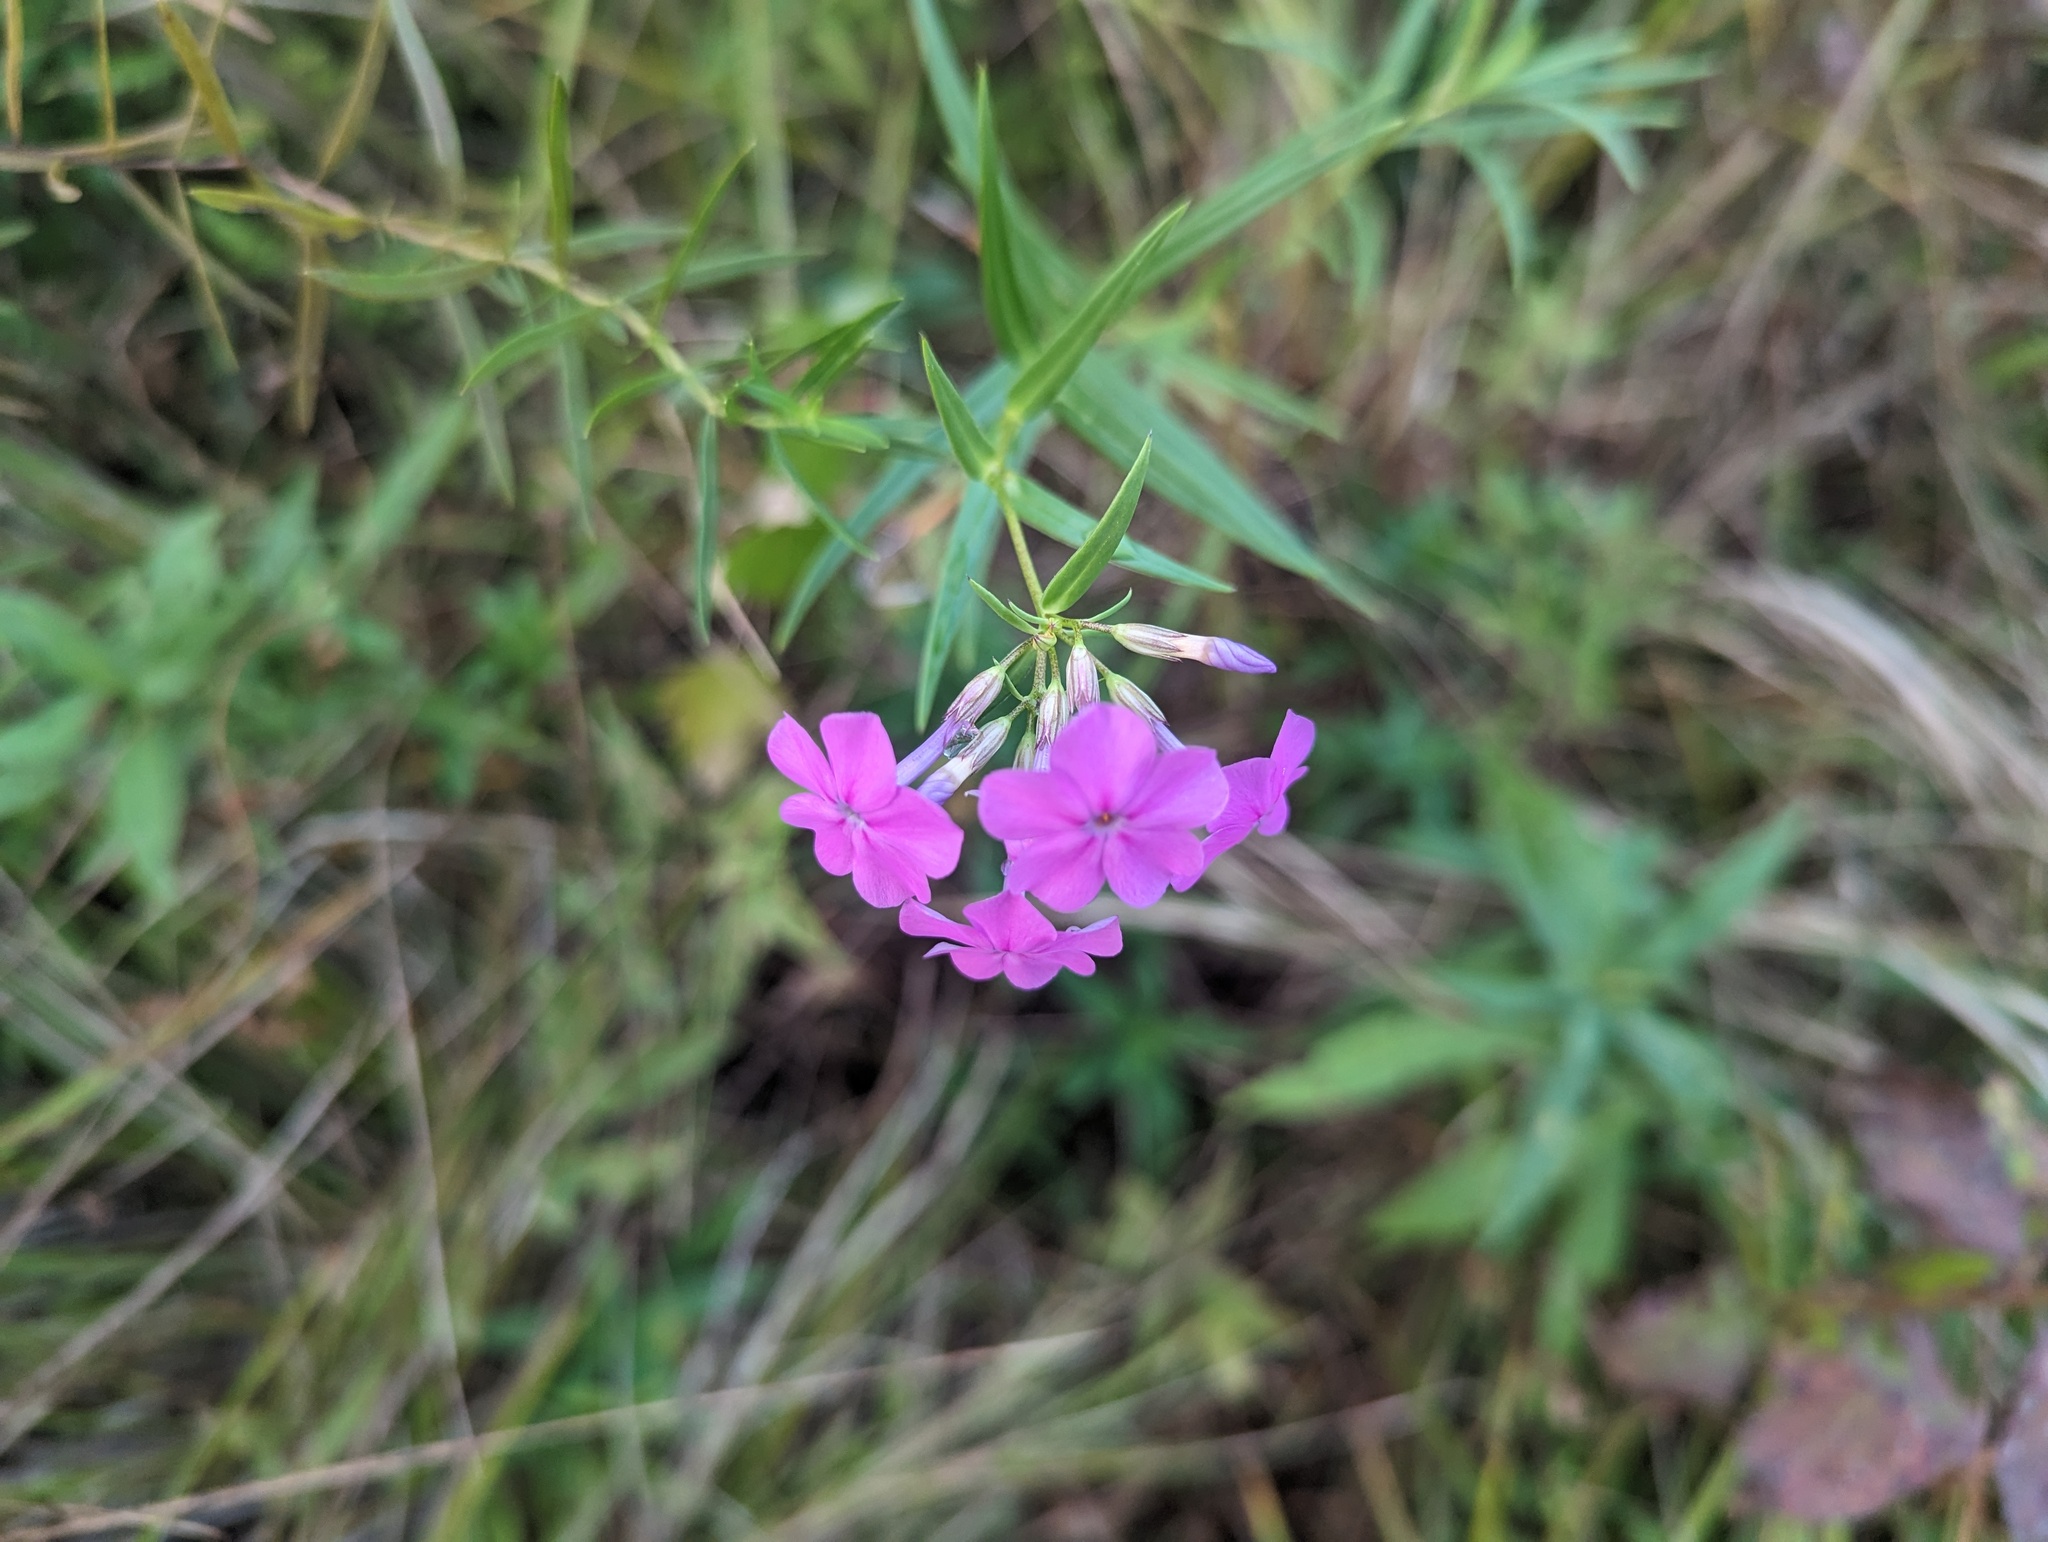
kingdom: Plantae
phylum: Tracheophyta
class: Magnoliopsida
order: Ericales
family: Polemoniaceae
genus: Phlox
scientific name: Phlox glaberrima
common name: Smooth phlox
